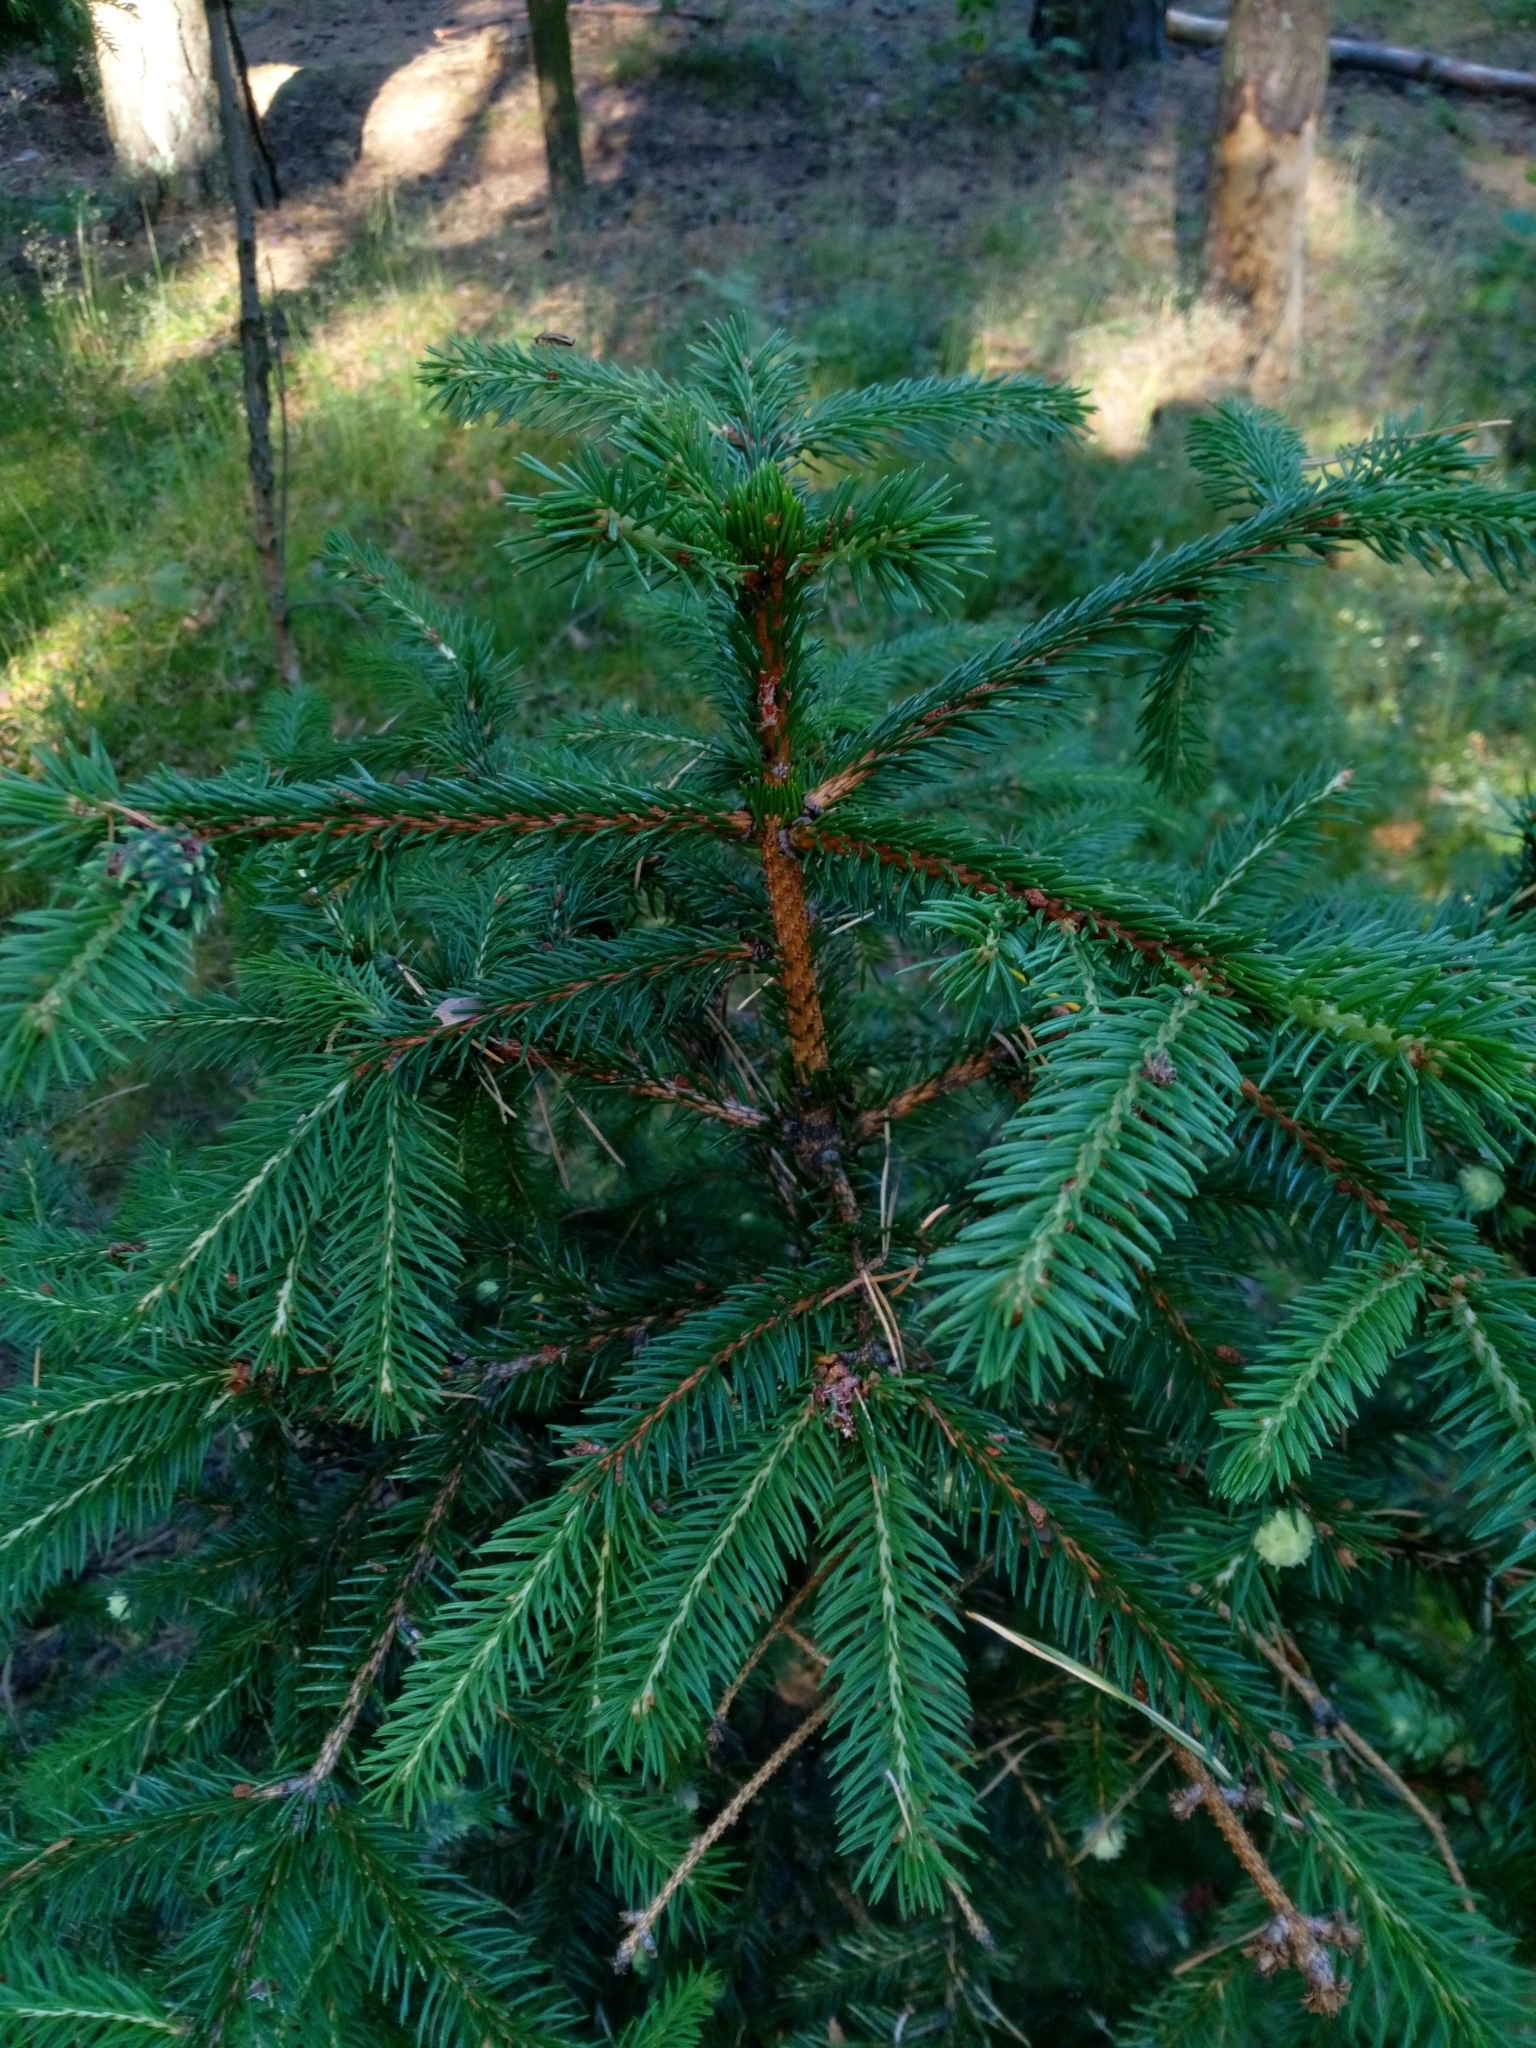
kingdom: Plantae
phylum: Tracheophyta
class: Pinopsida
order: Pinales
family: Pinaceae
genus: Picea
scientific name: Picea abies
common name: Norway spruce
